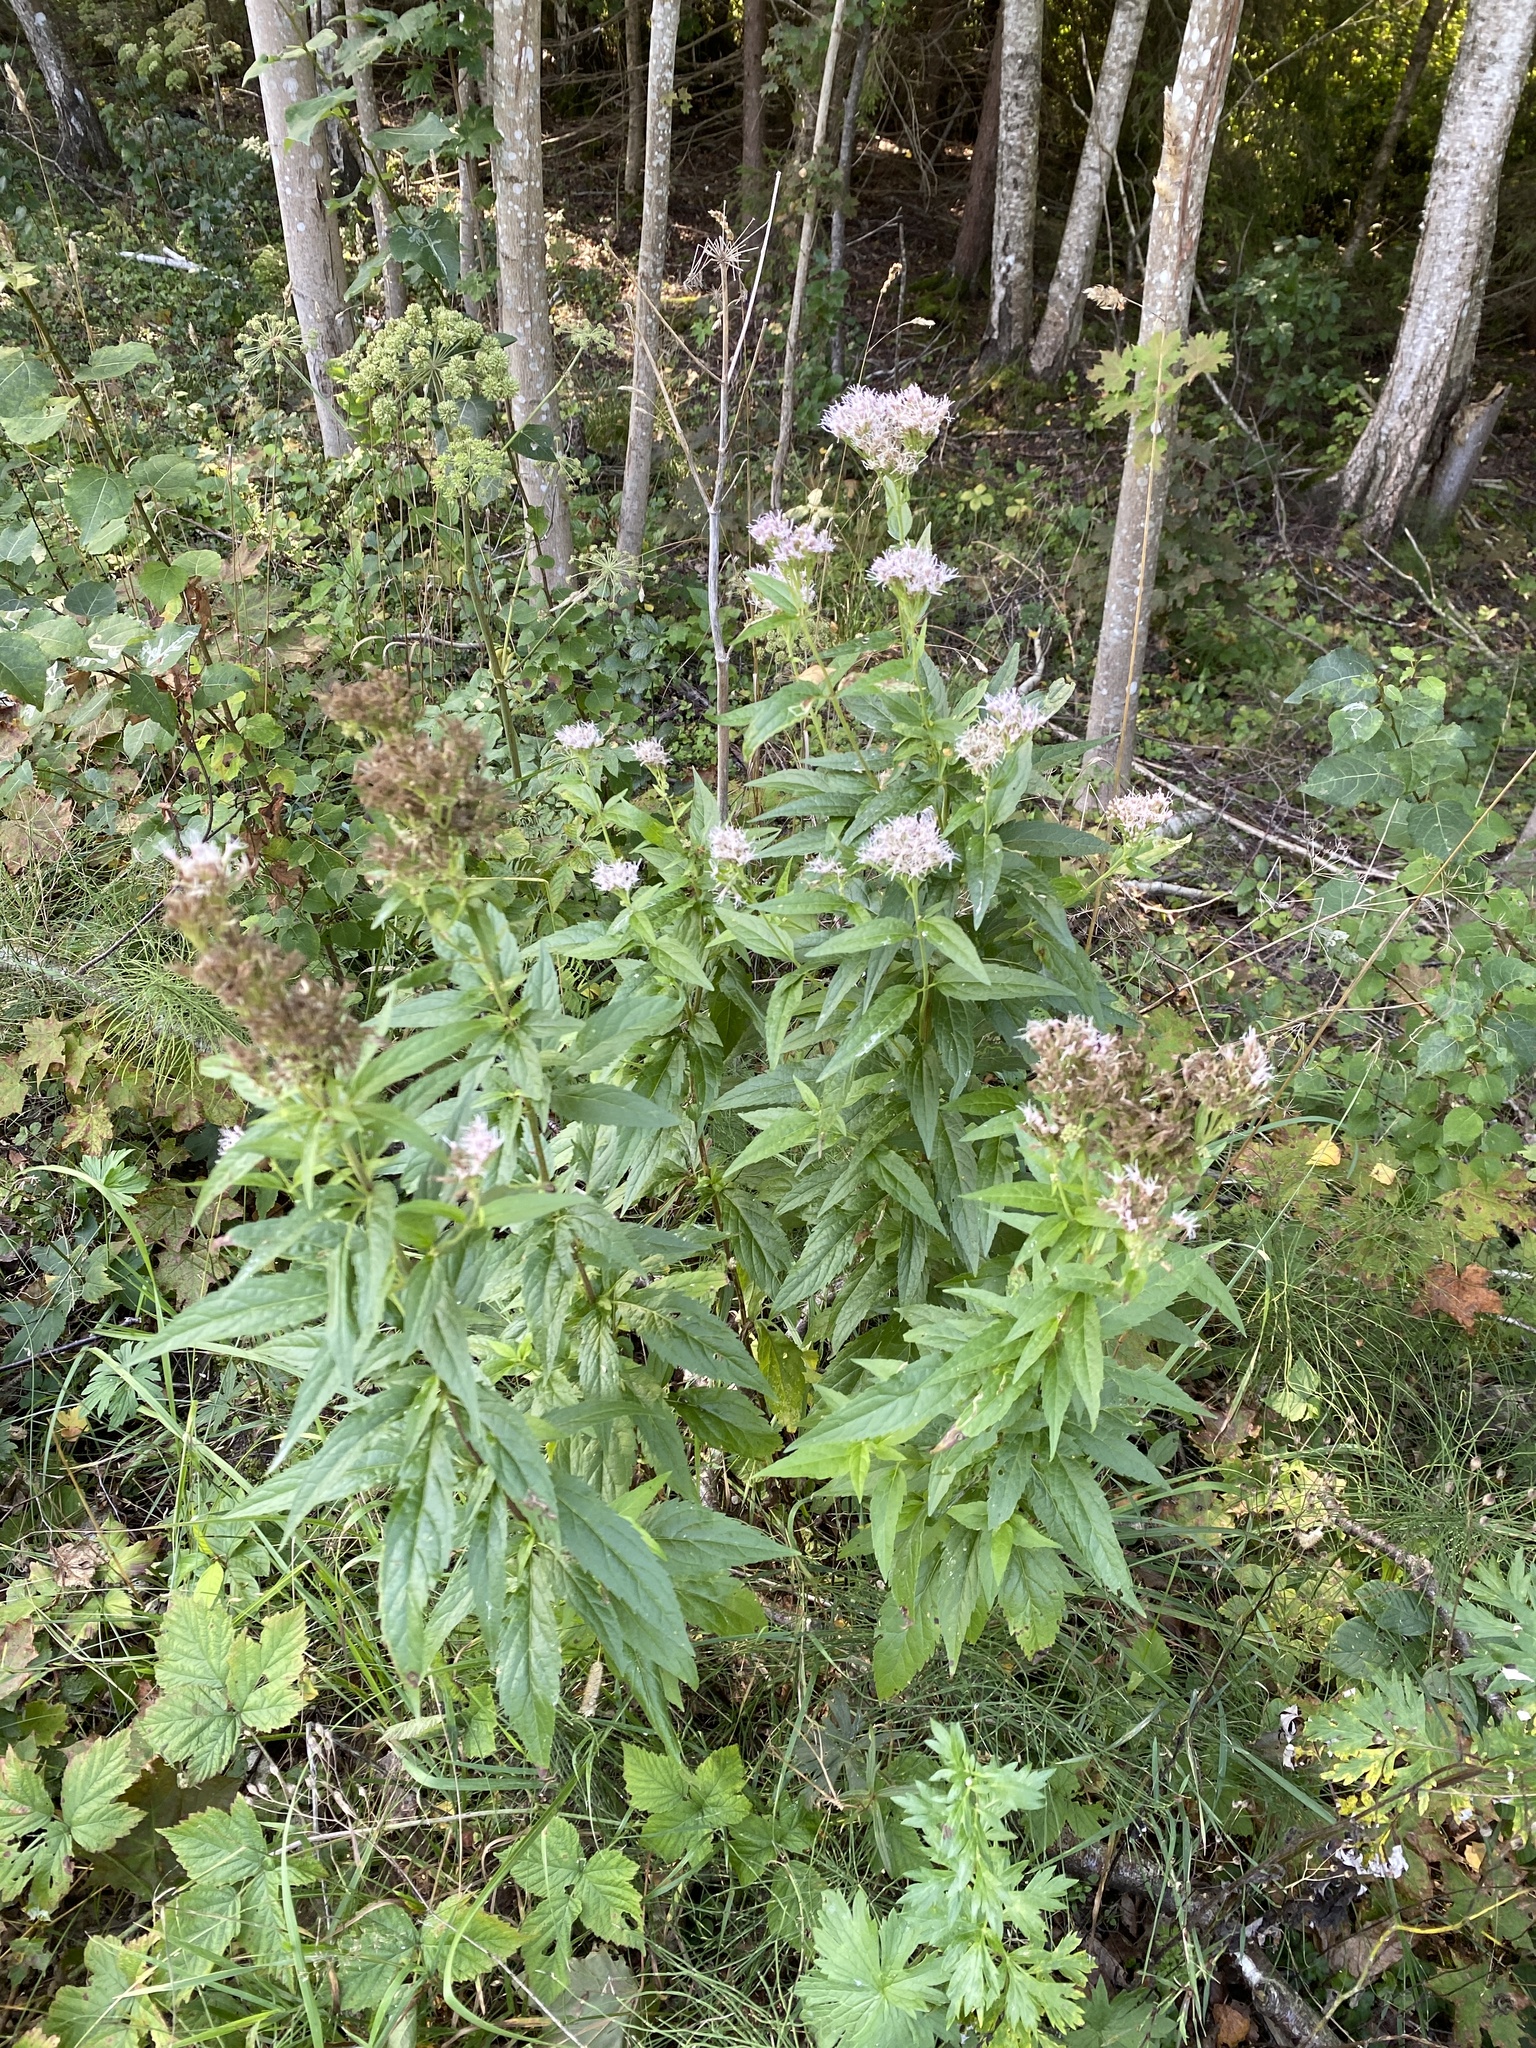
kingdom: Plantae
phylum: Tracheophyta
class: Magnoliopsida
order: Asterales
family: Asteraceae
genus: Eupatorium
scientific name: Eupatorium cannabinum
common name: Hemp-agrimony
